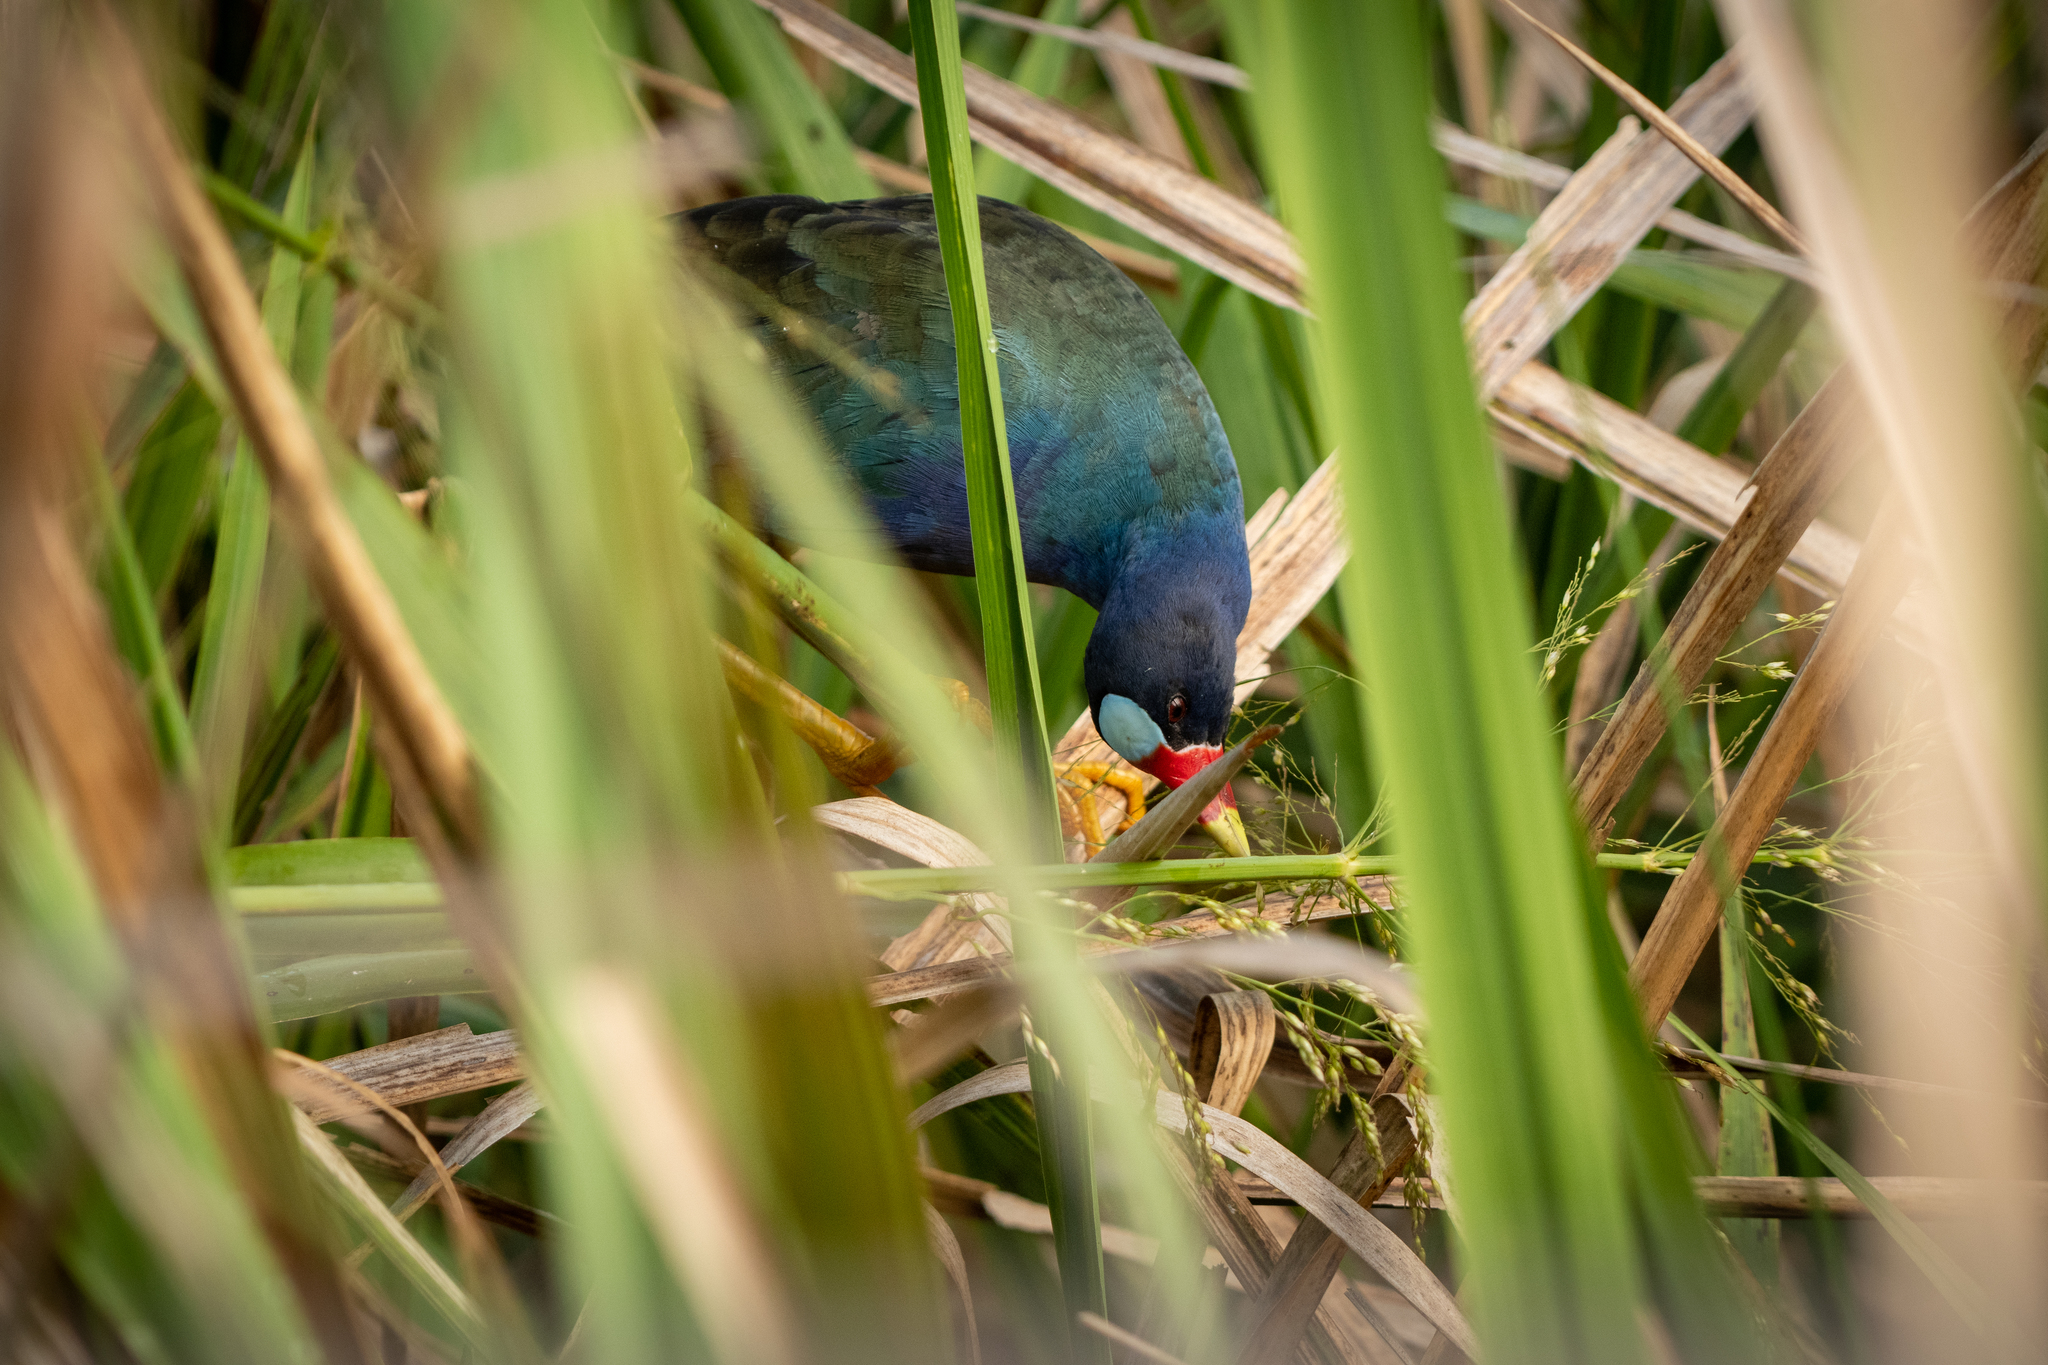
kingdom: Animalia
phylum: Chordata
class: Aves
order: Gruiformes
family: Rallidae
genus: Porphyrio
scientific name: Porphyrio martinica
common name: Purple gallinule
